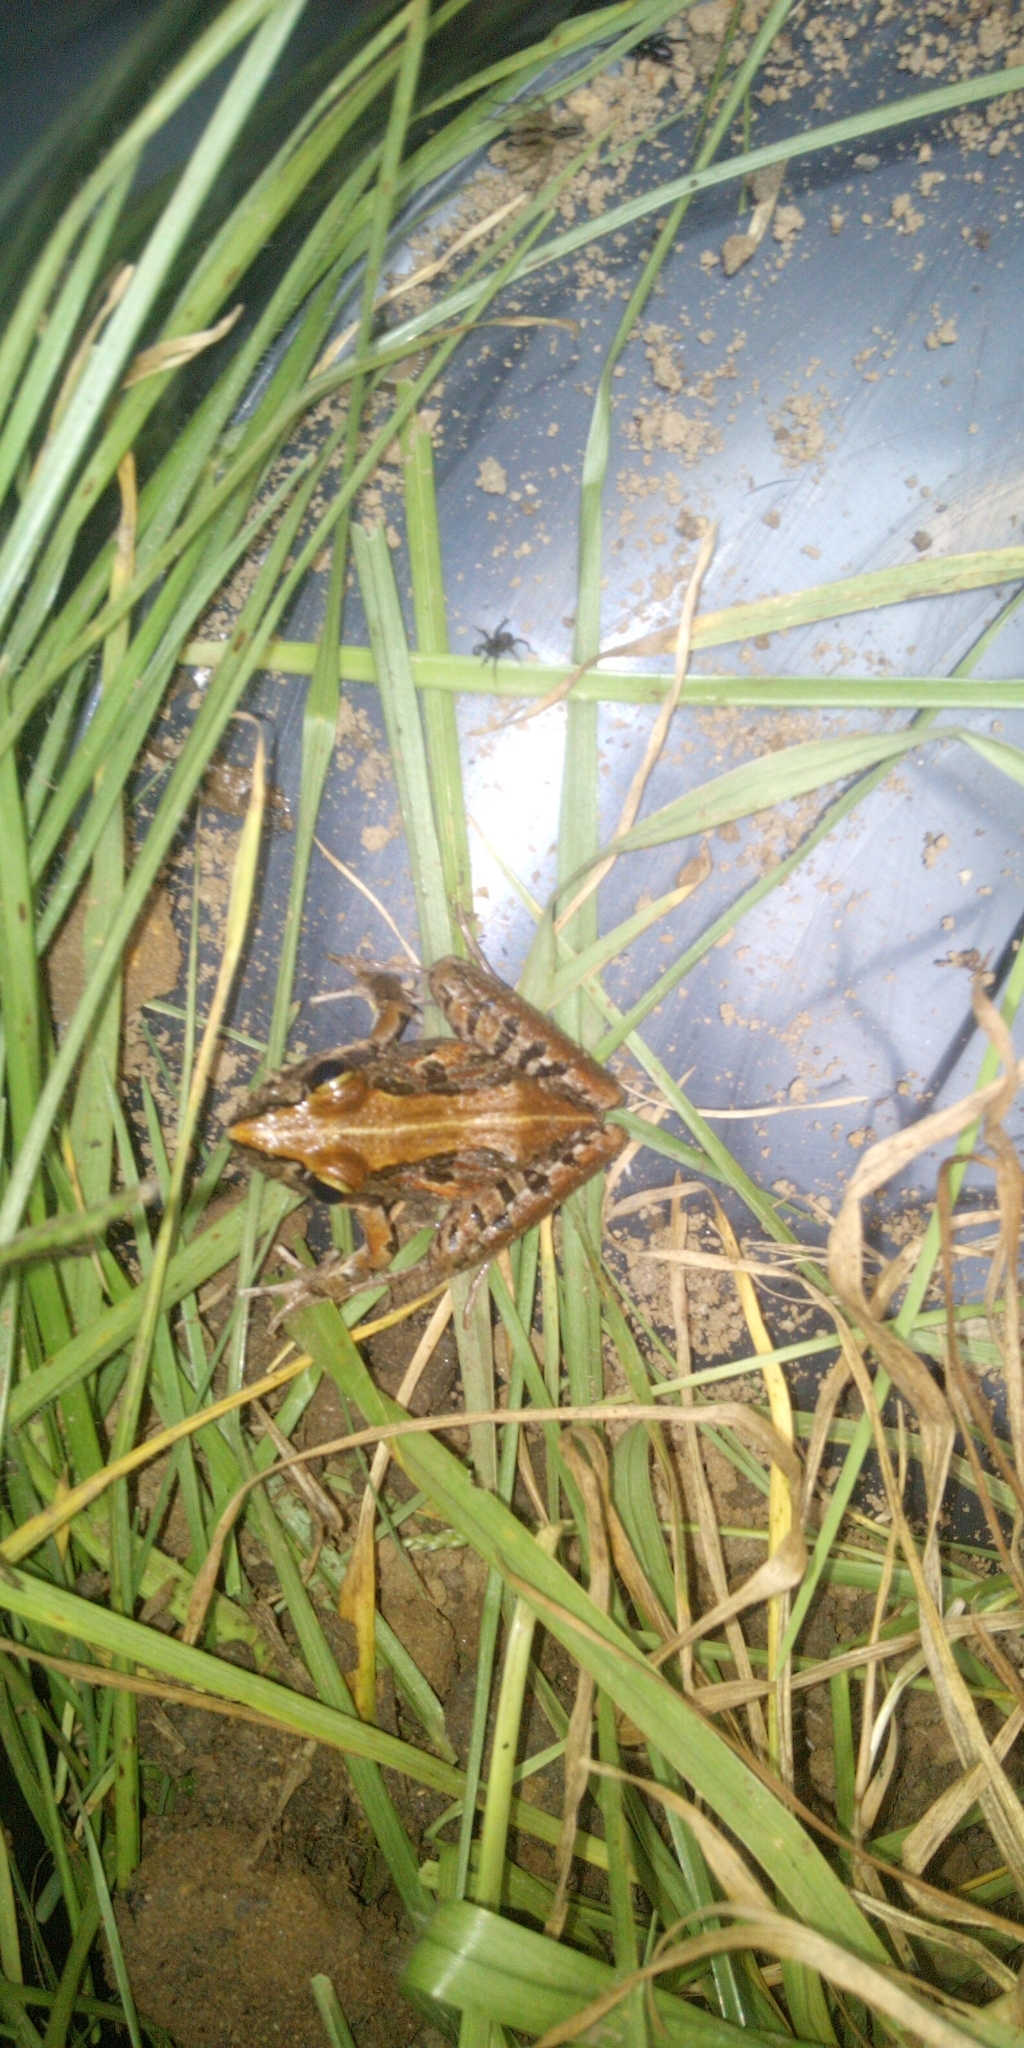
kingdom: Animalia
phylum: Chordata
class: Amphibia
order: Anura
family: Pyxicephalidae
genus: Strongylopus
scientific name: Strongylopus grayii
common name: Gray's stream frog
